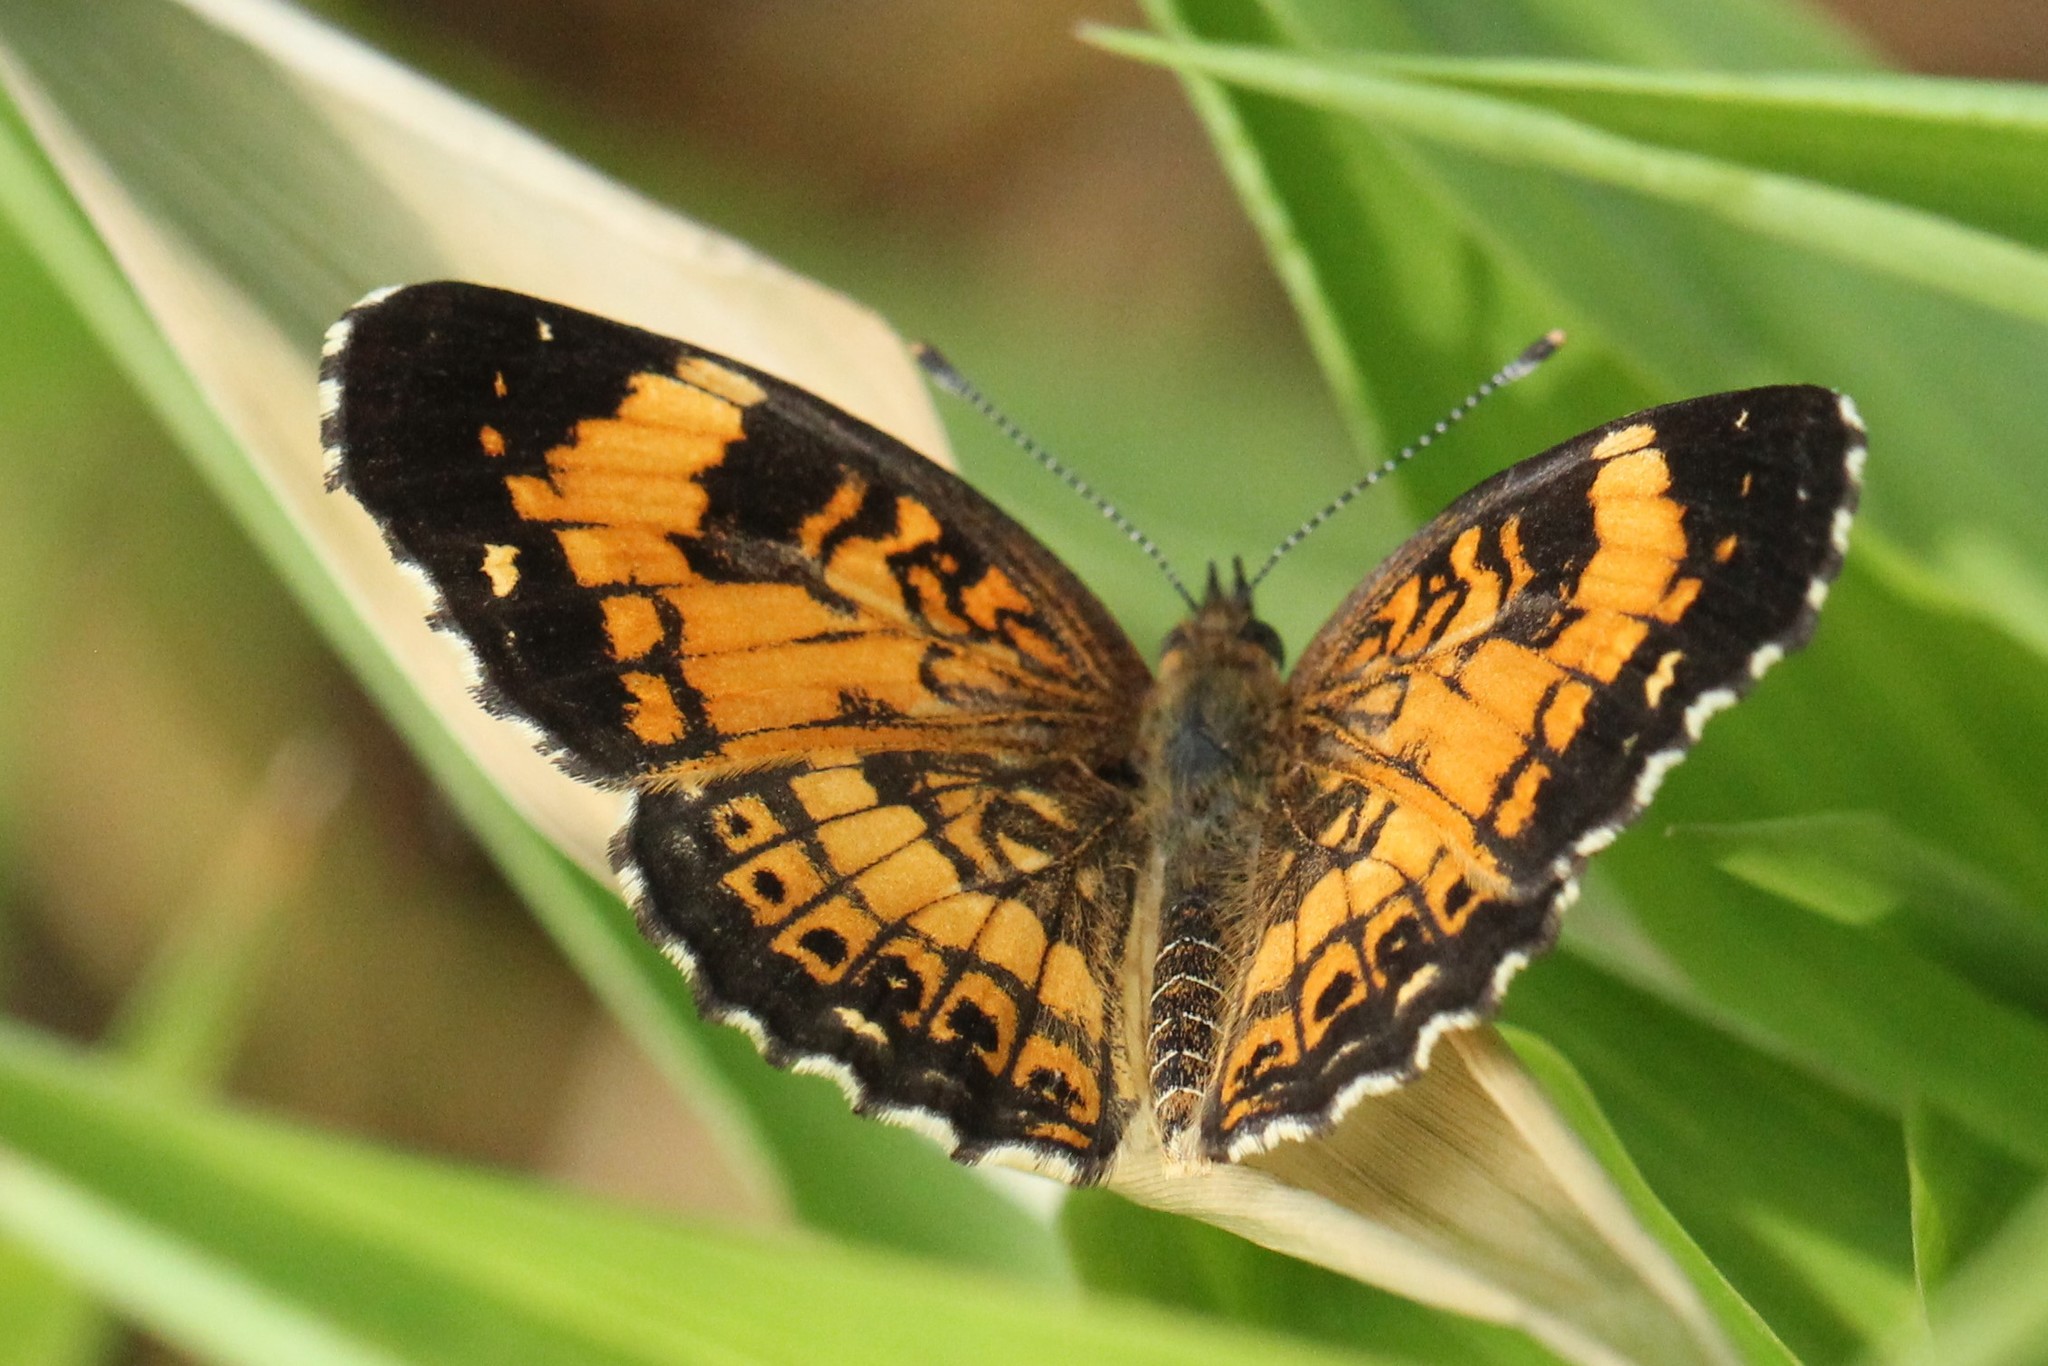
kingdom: Animalia
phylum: Arthropoda
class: Insecta
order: Lepidoptera
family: Nymphalidae
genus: Chlosyne
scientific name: Chlosyne nycteis
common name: Silvery checkerspot
